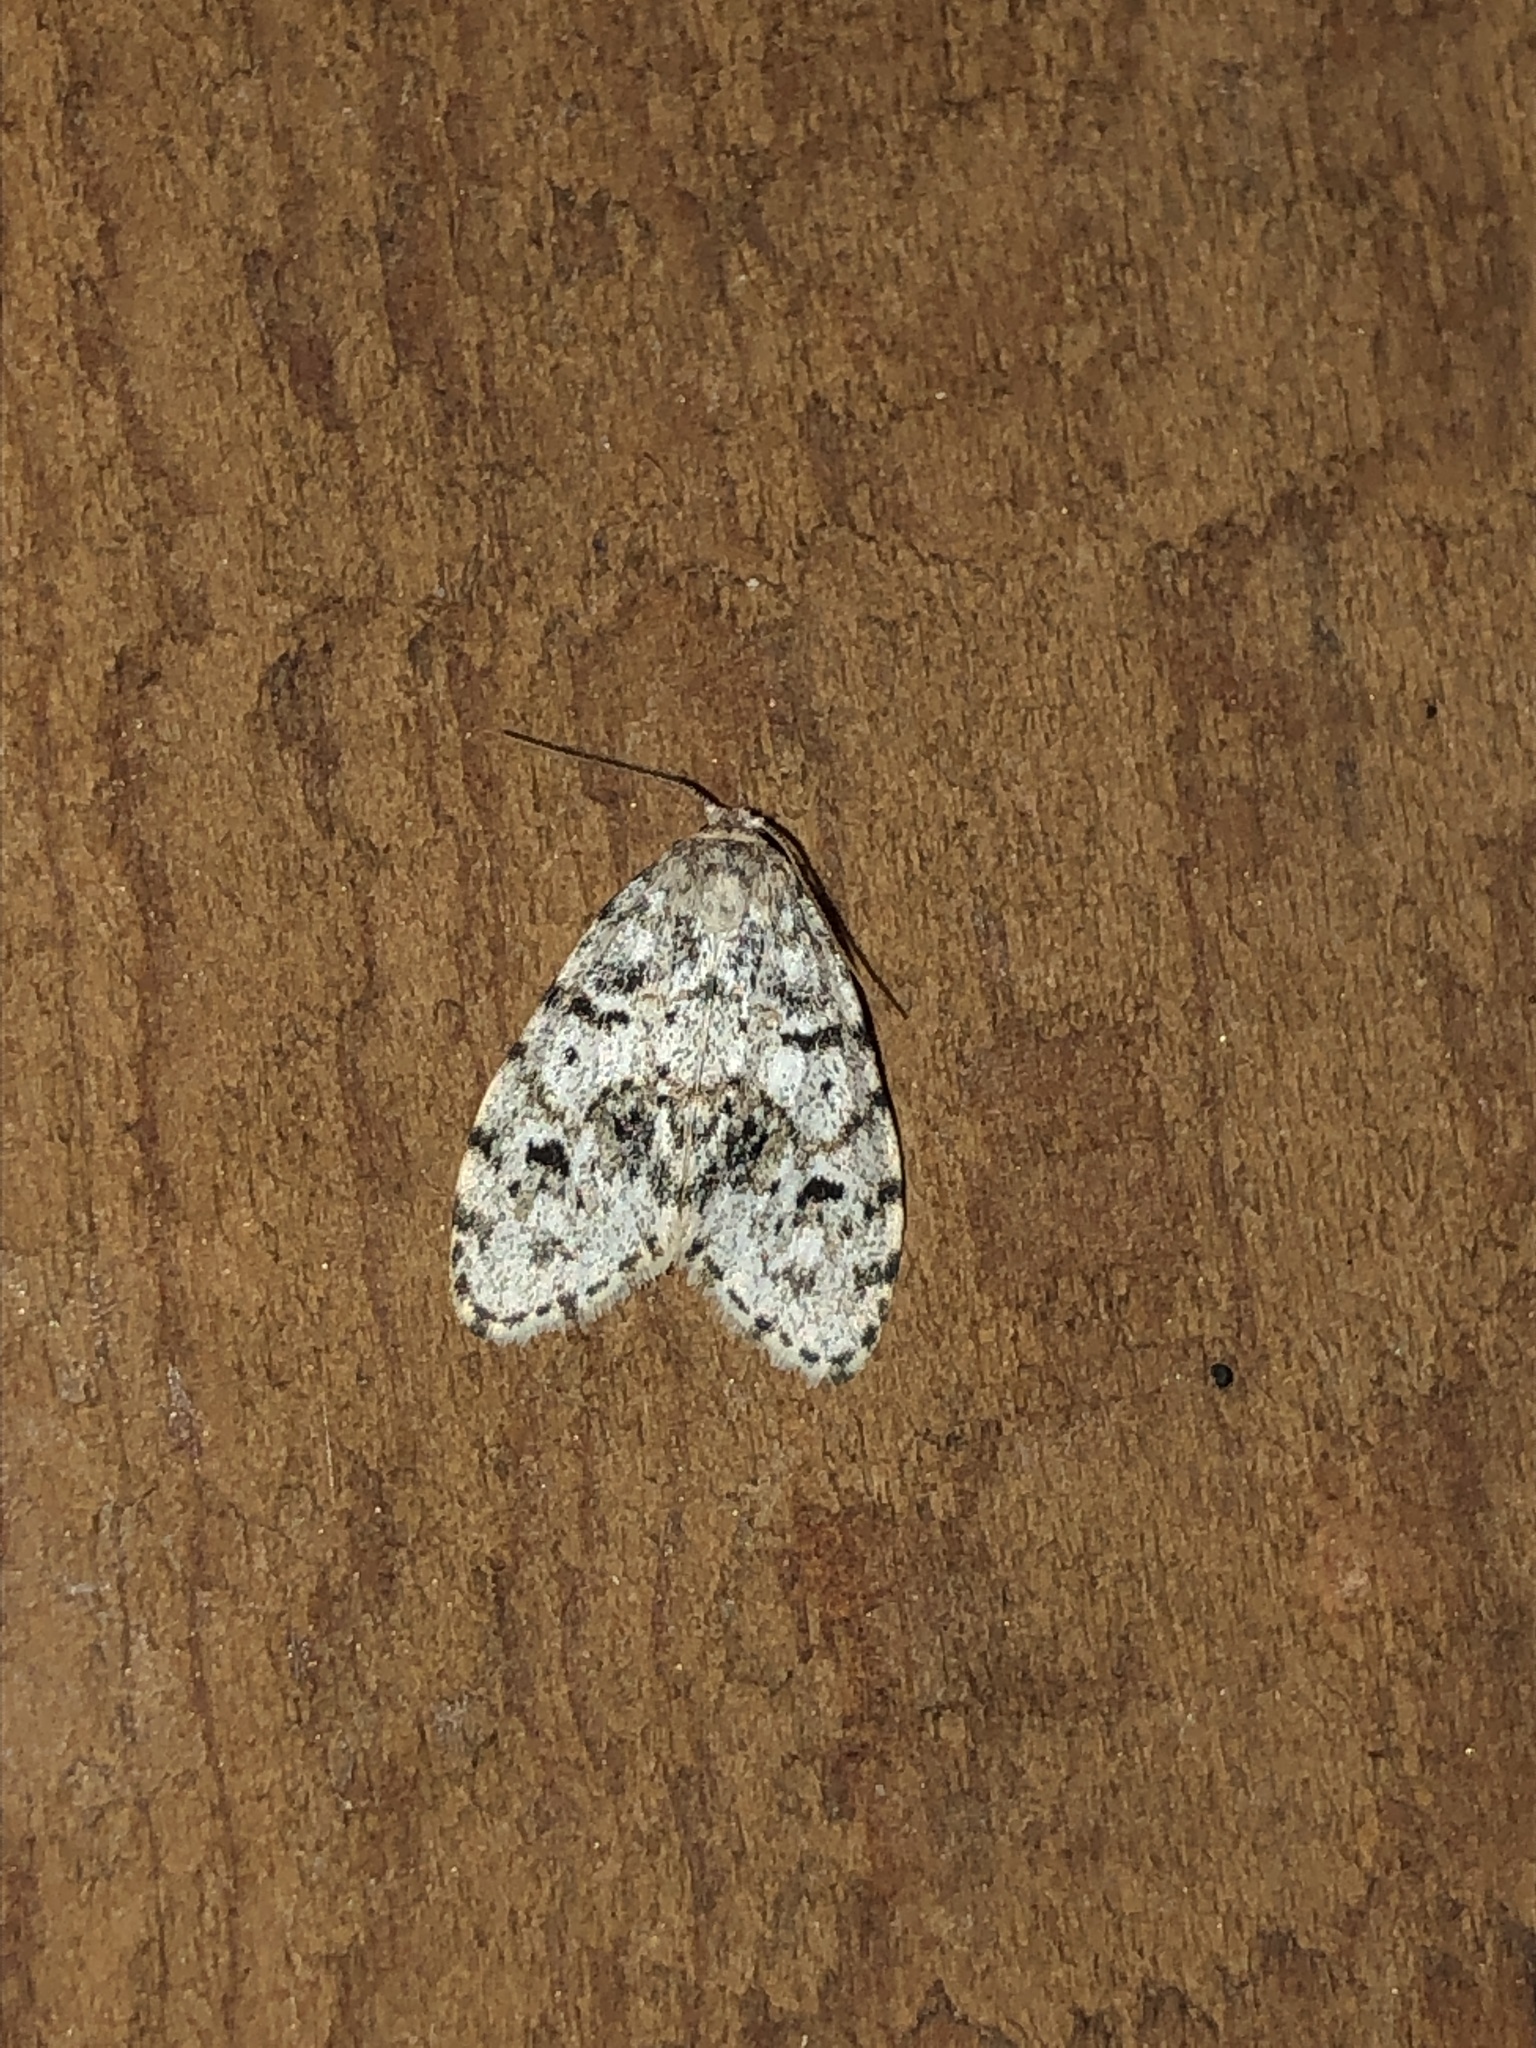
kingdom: Animalia
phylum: Arthropoda
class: Insecta
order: Lepidoptera
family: Erebidae
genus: Clemensia
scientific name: Clemensia umbrata
